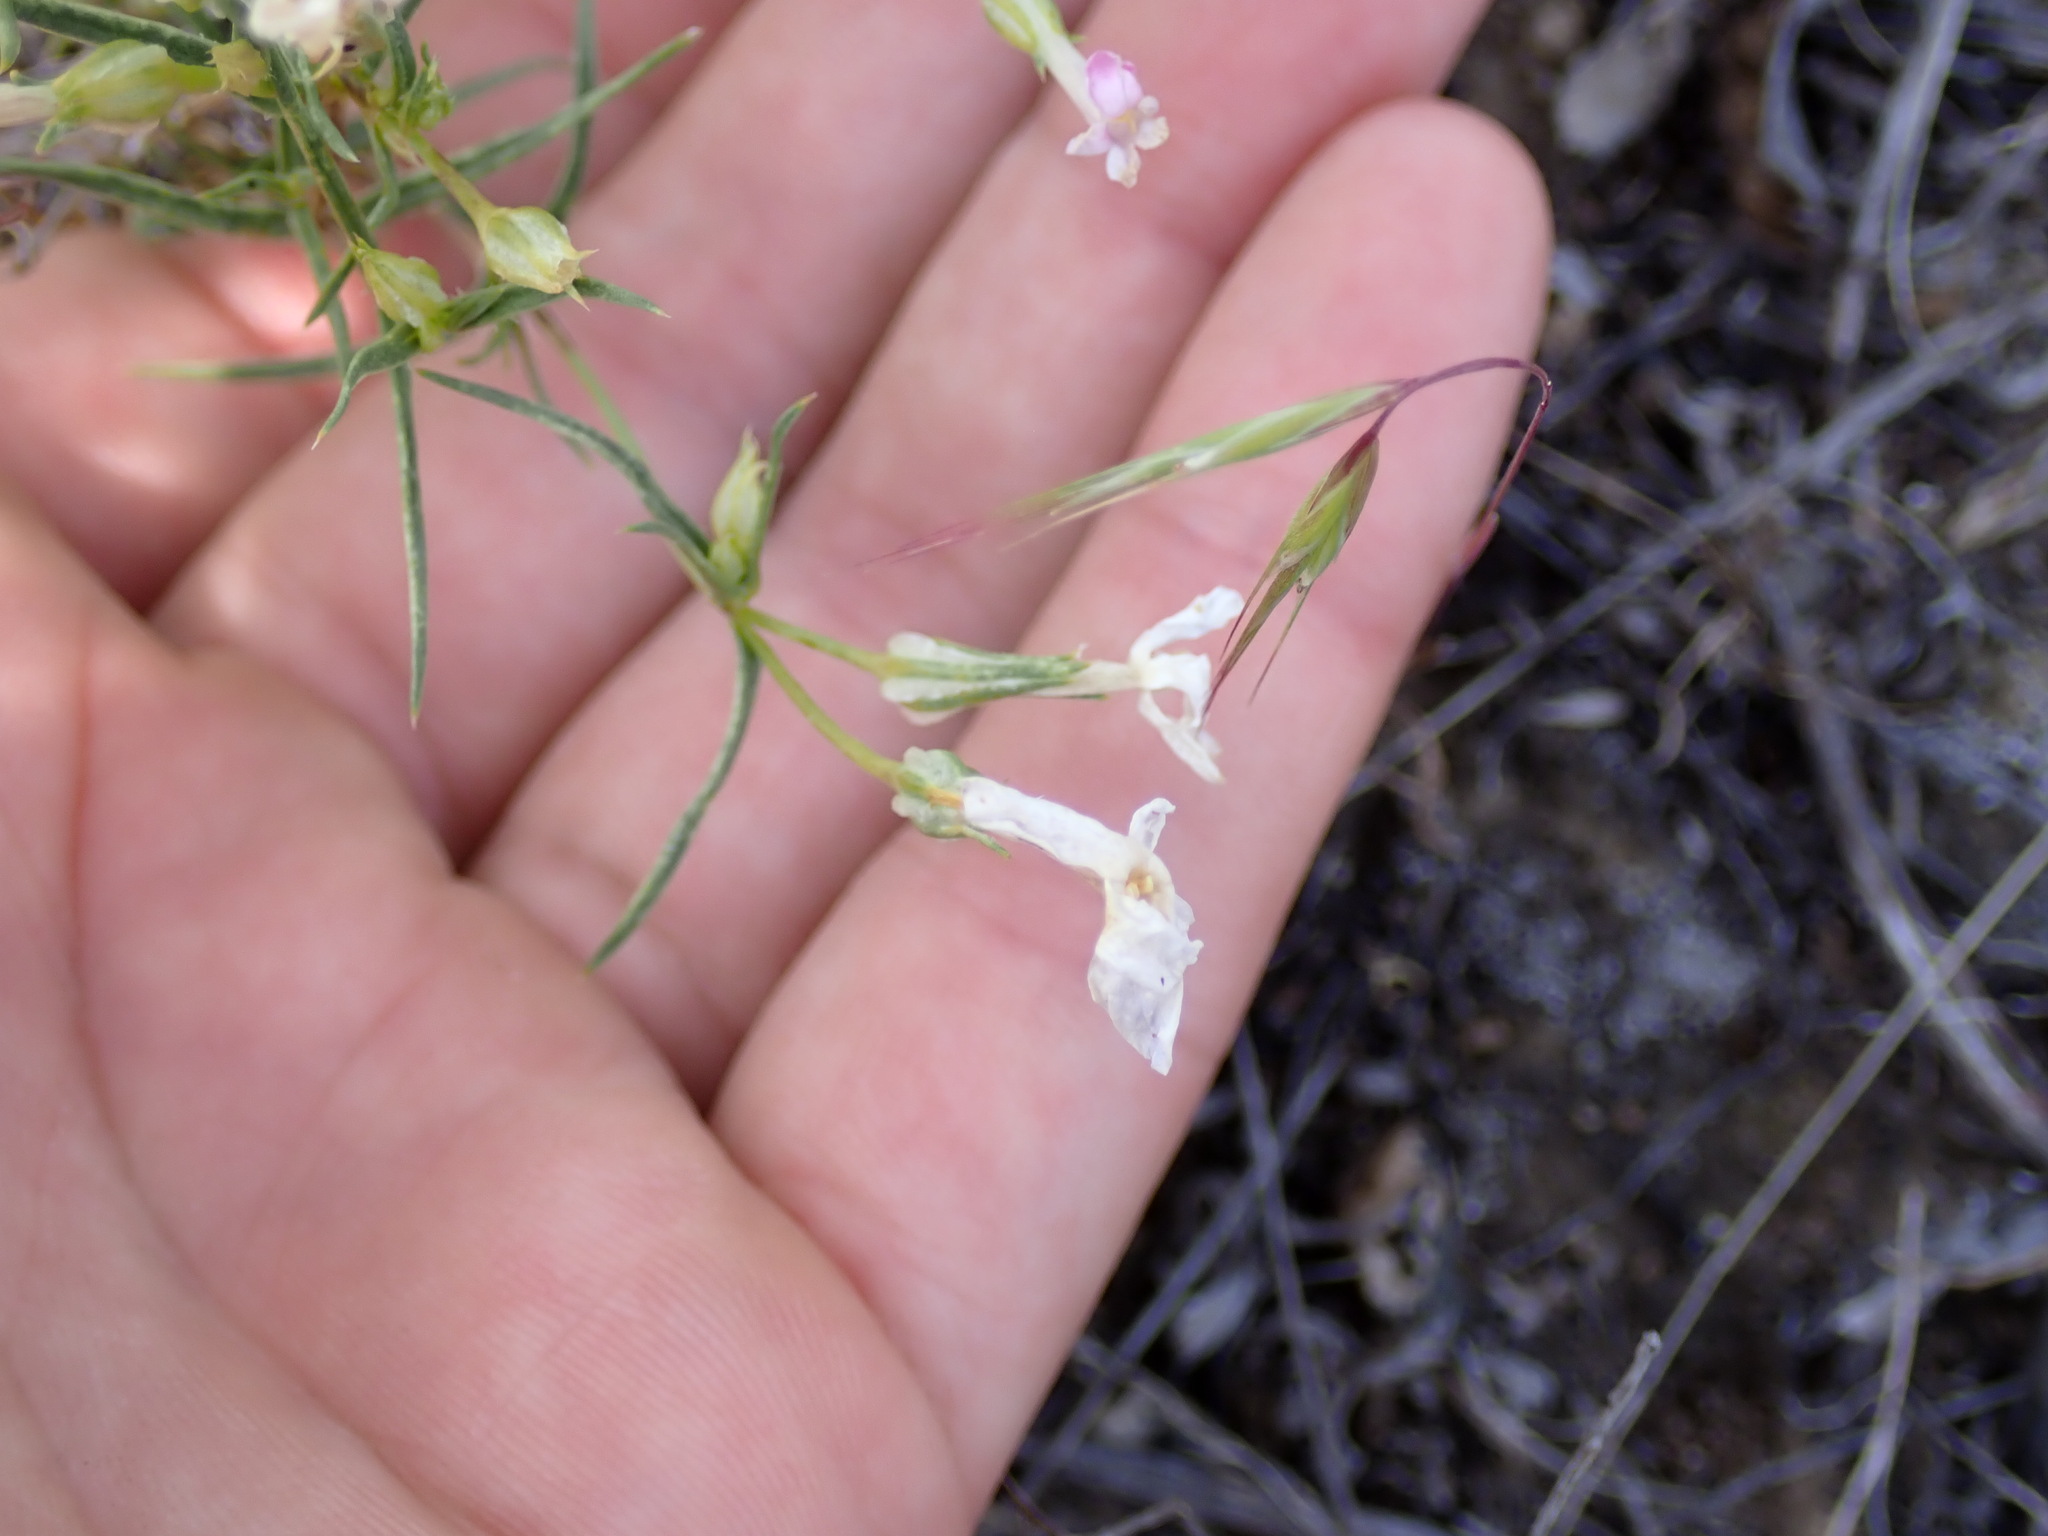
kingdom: Plantae
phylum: Tracheophyta
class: Magnoliopsida
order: Ericales
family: Polemoniaceae
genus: Phlox
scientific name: Phlox longifolia
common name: Longleaf phlox
